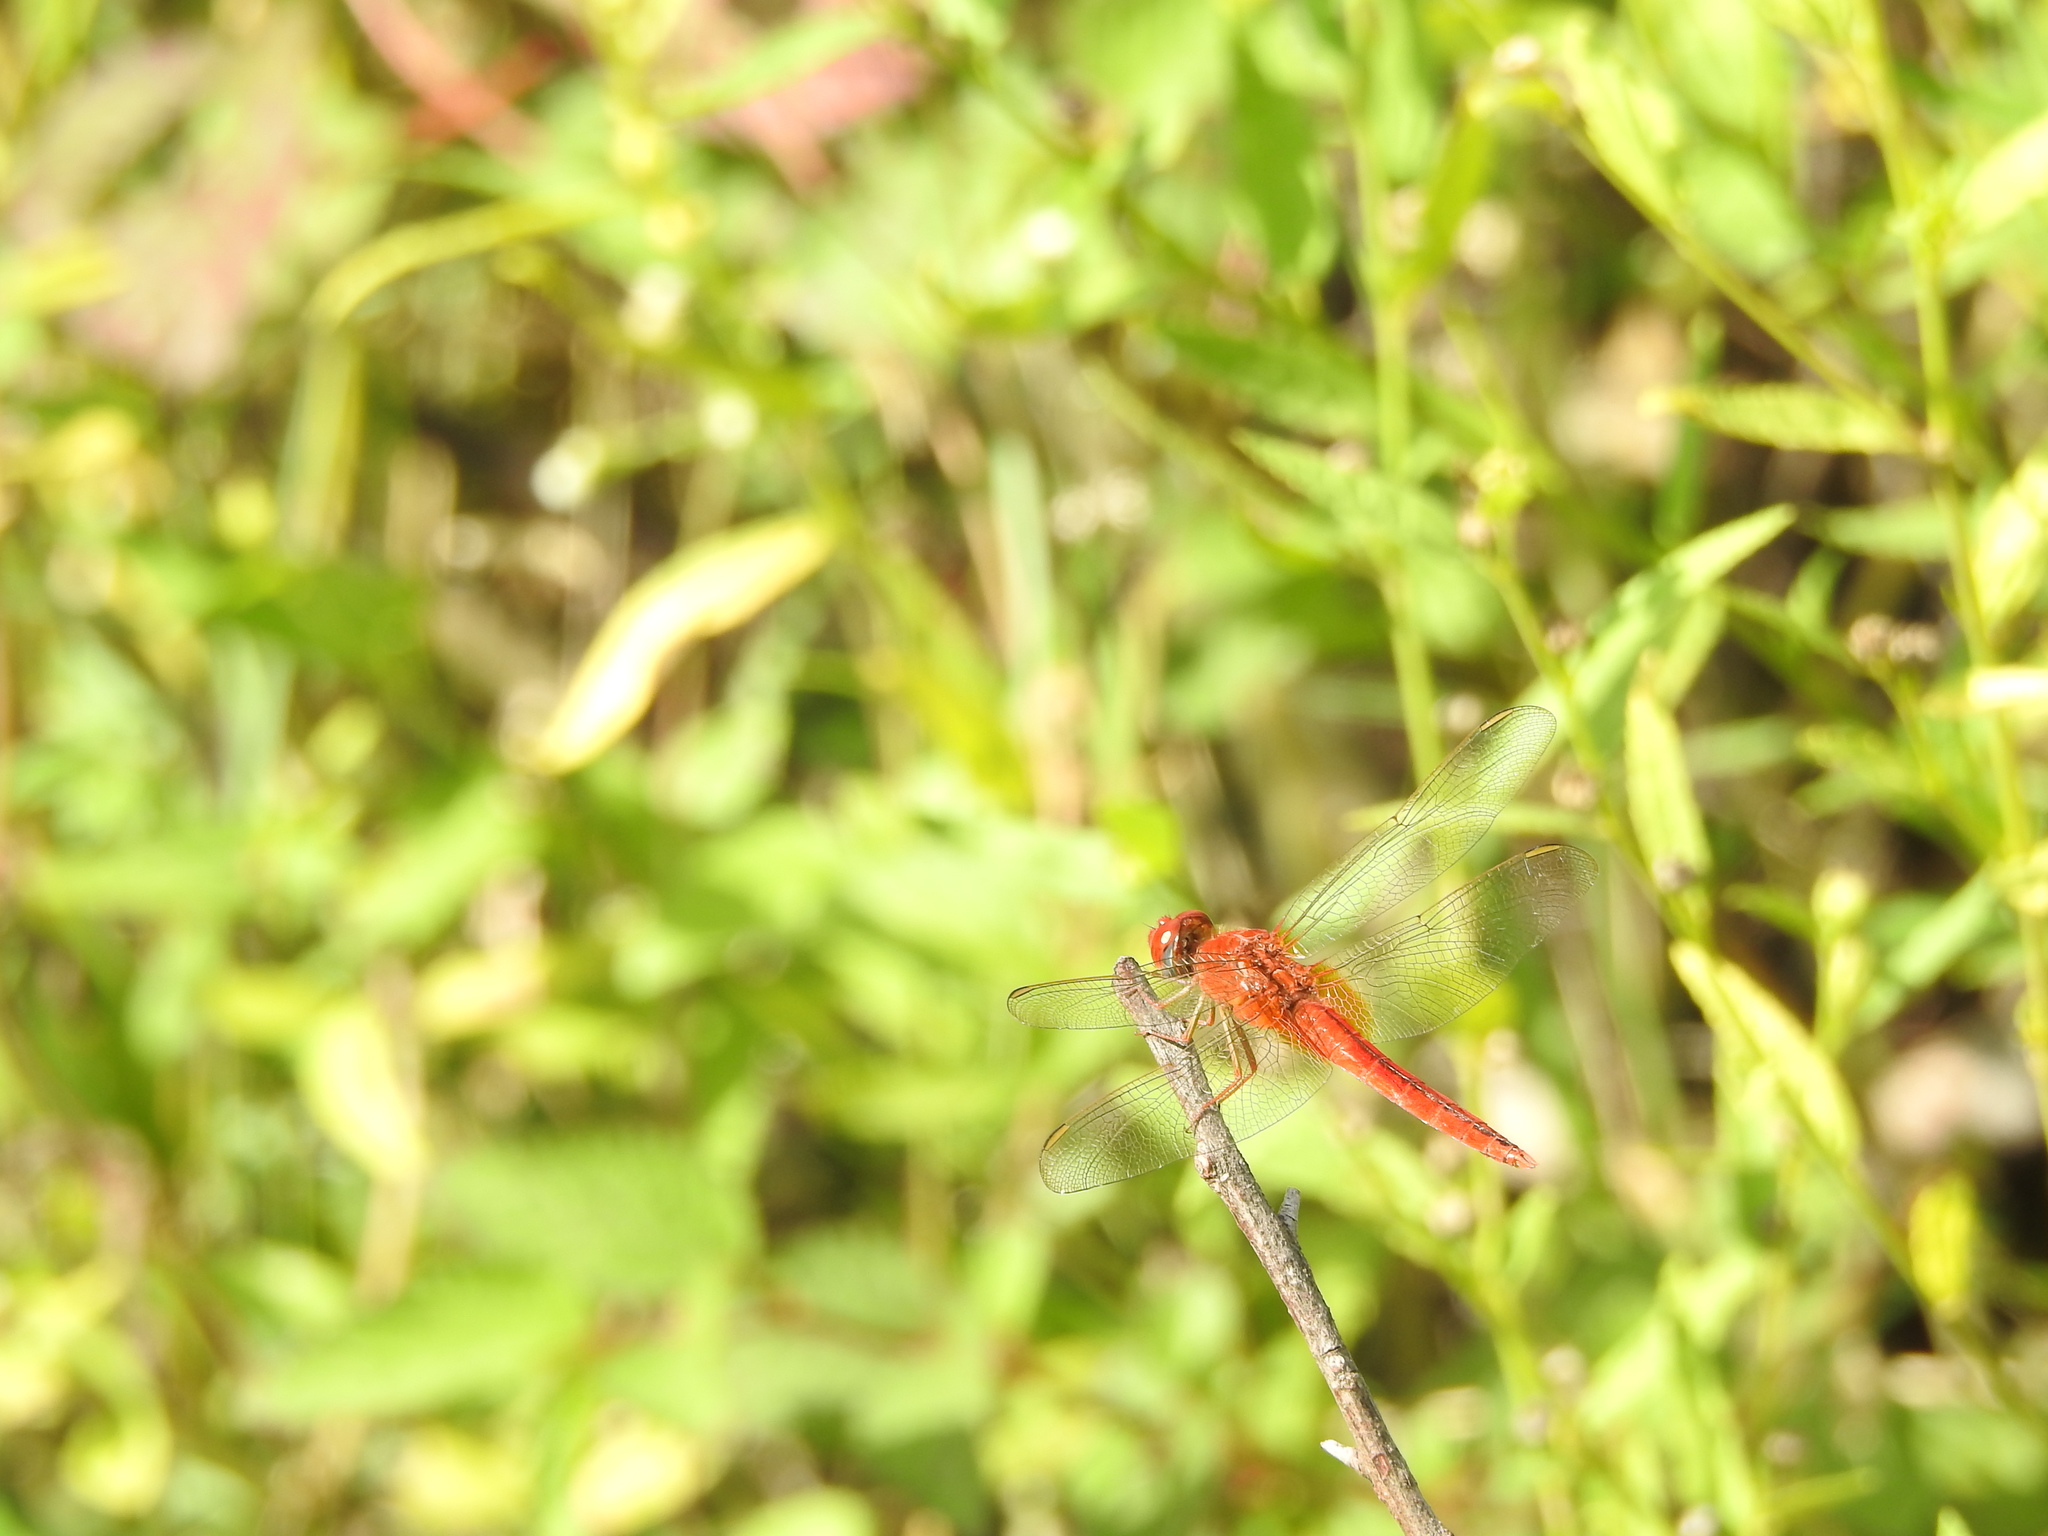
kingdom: Animalia
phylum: Arthropoda
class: Insecta
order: Odonata
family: Libellulidae
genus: Crocothemis
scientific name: Crocothemis servilia
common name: Scarlet skimmer
